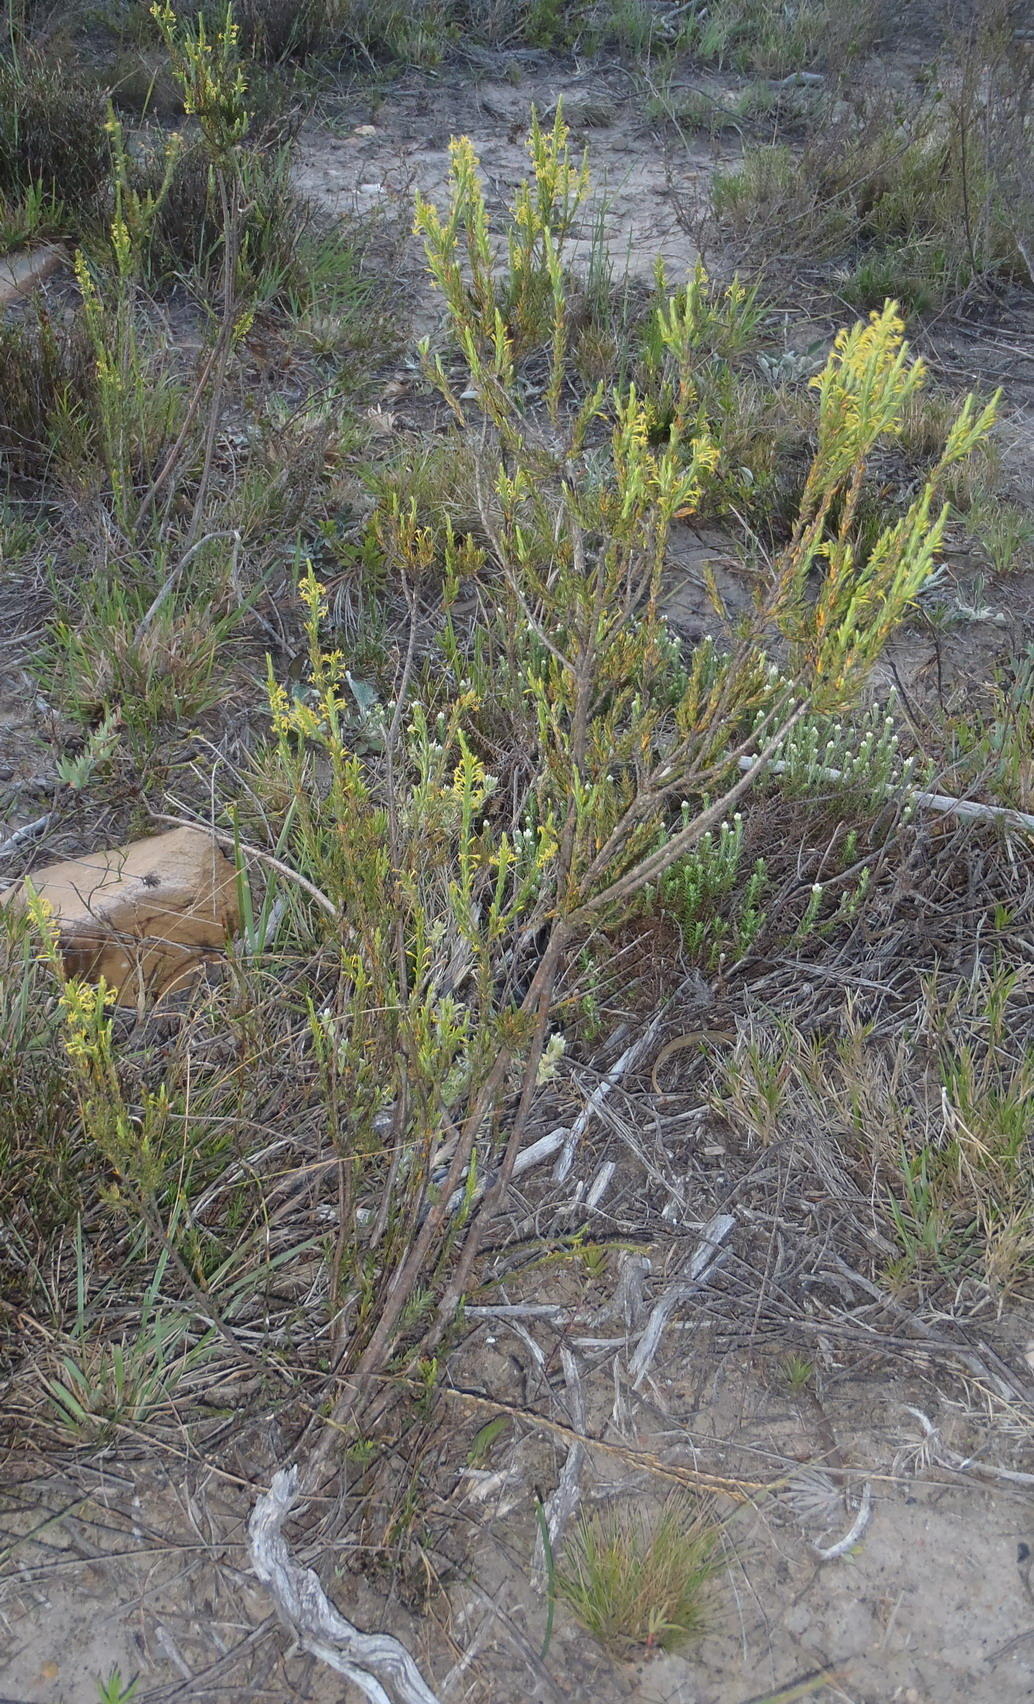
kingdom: Plantae
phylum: Tracheophyta
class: Magnoliopsida
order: Malvales
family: Thymelaeaceae
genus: Struthiola
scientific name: Struthiola eckloniana
